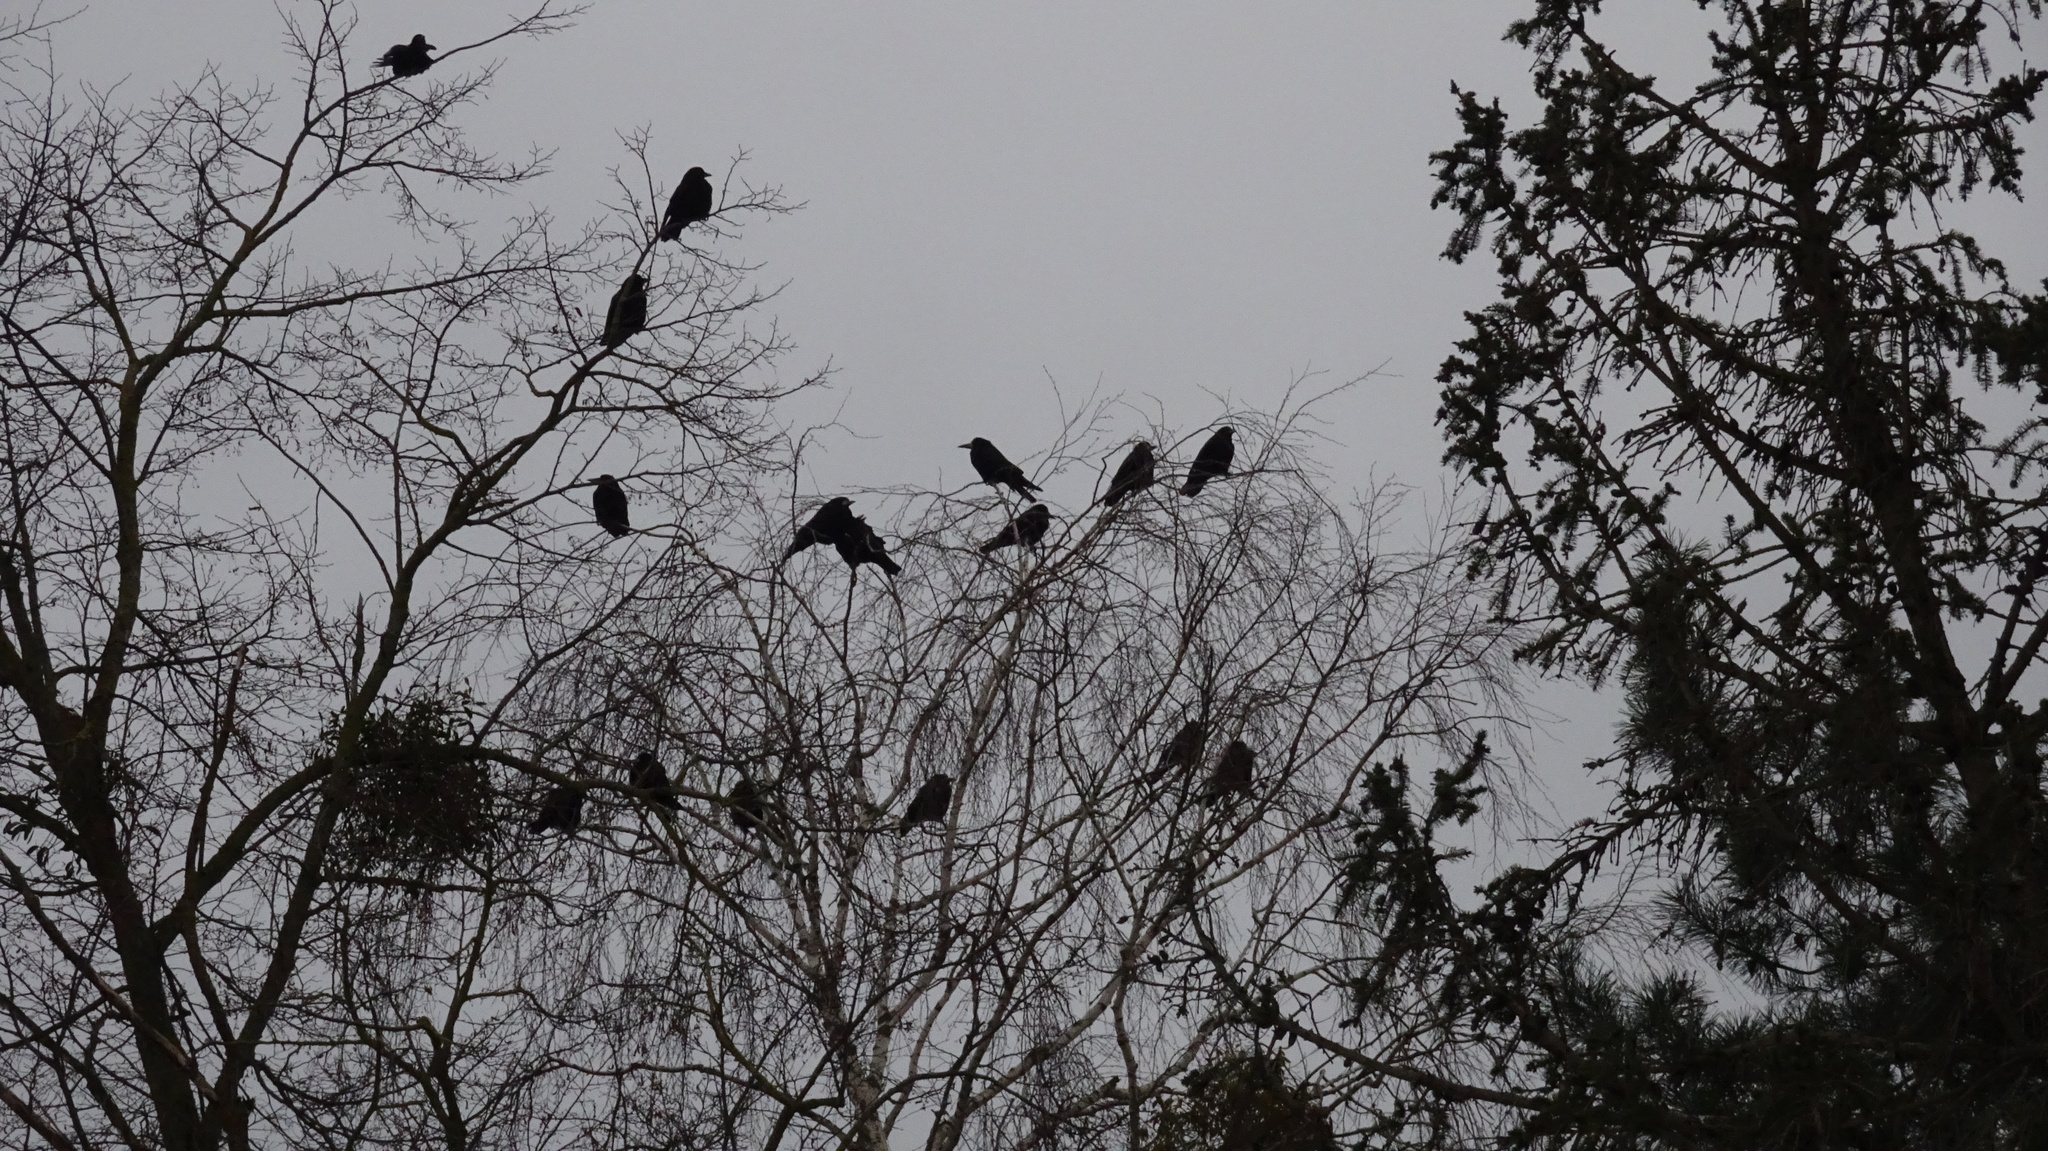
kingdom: Animalia
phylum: Chordata
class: Aves
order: Passeriformes
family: Corvidae
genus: Corvus
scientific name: Corvus frugilegus
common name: Rook
